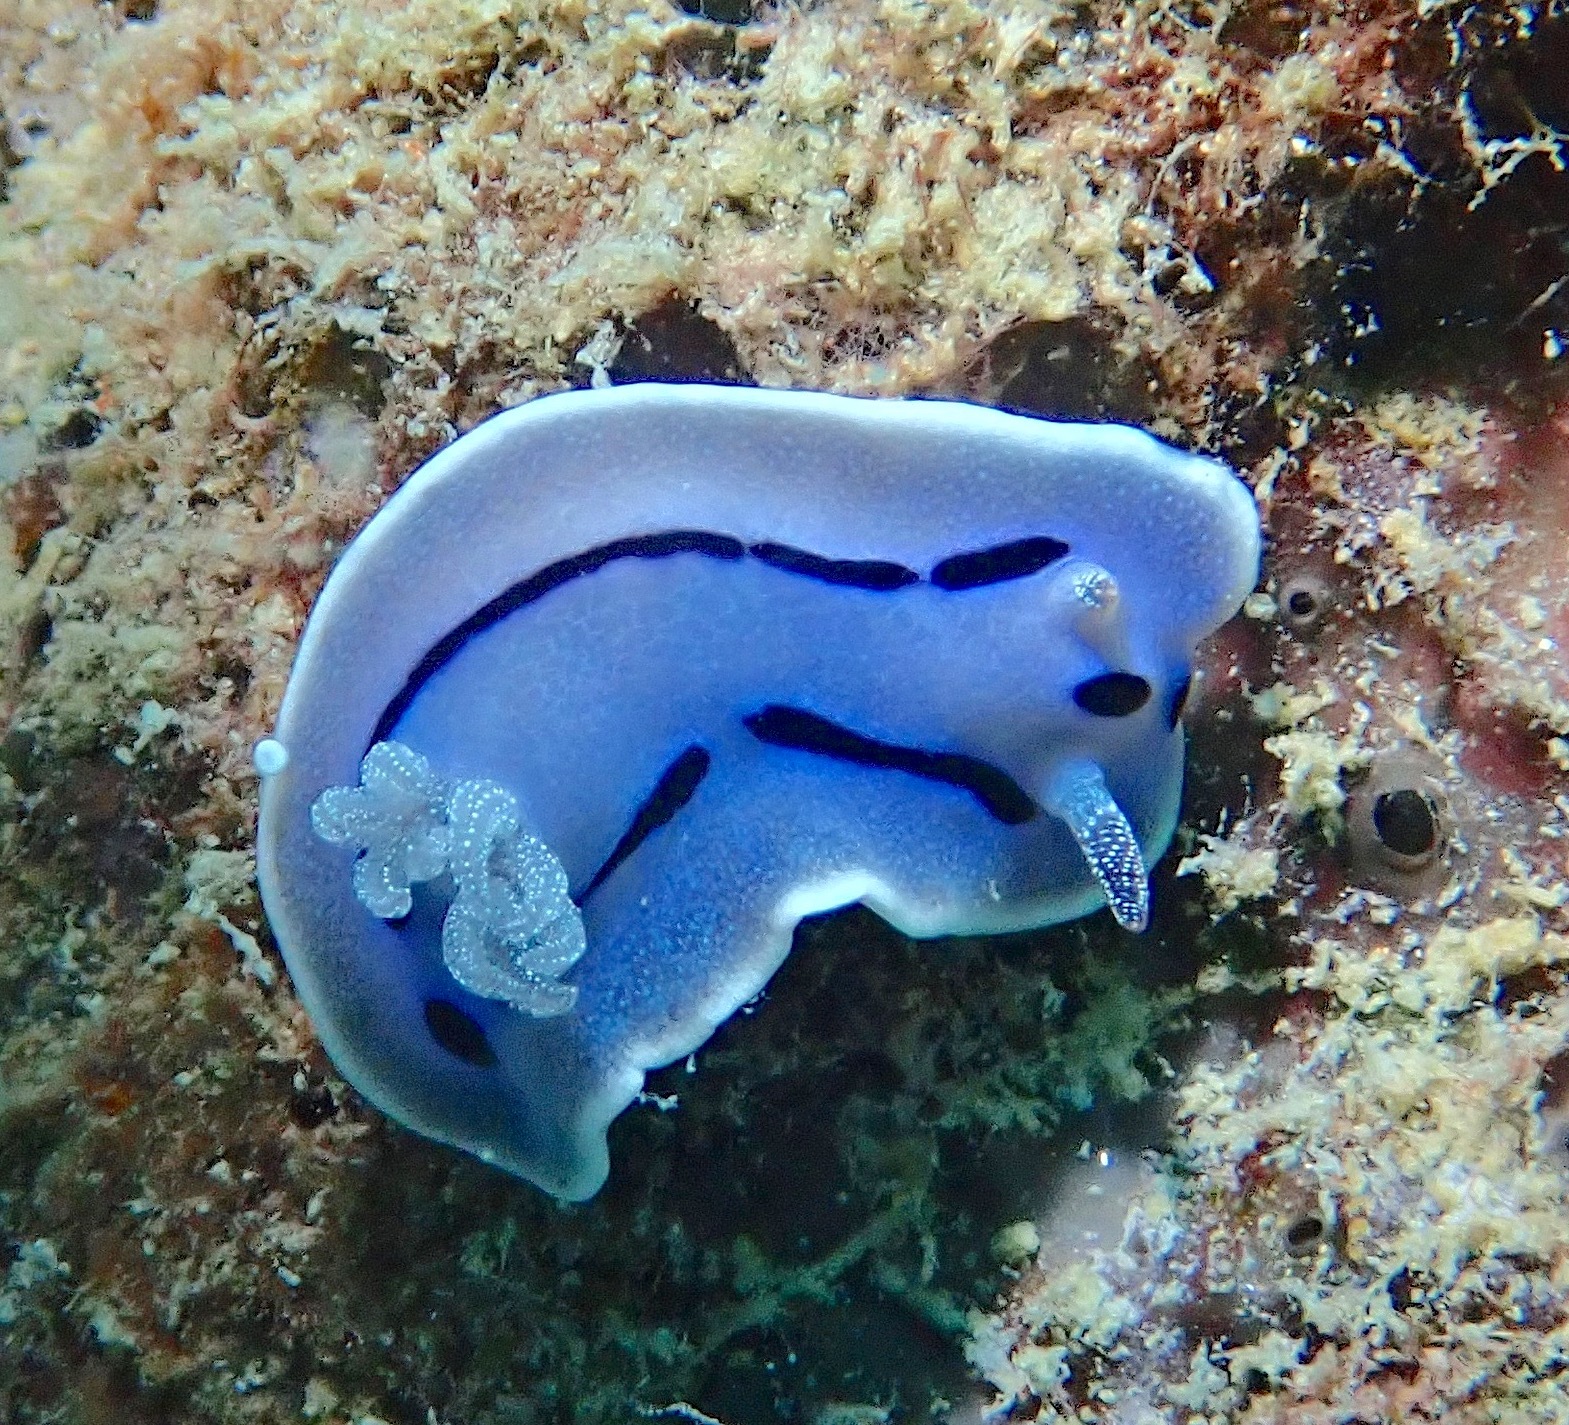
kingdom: Animalia
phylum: Mollusca
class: Gastropoda
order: Nudibranchia
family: Chromodorididae
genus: Chromodoris
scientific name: Chromodoris willani
